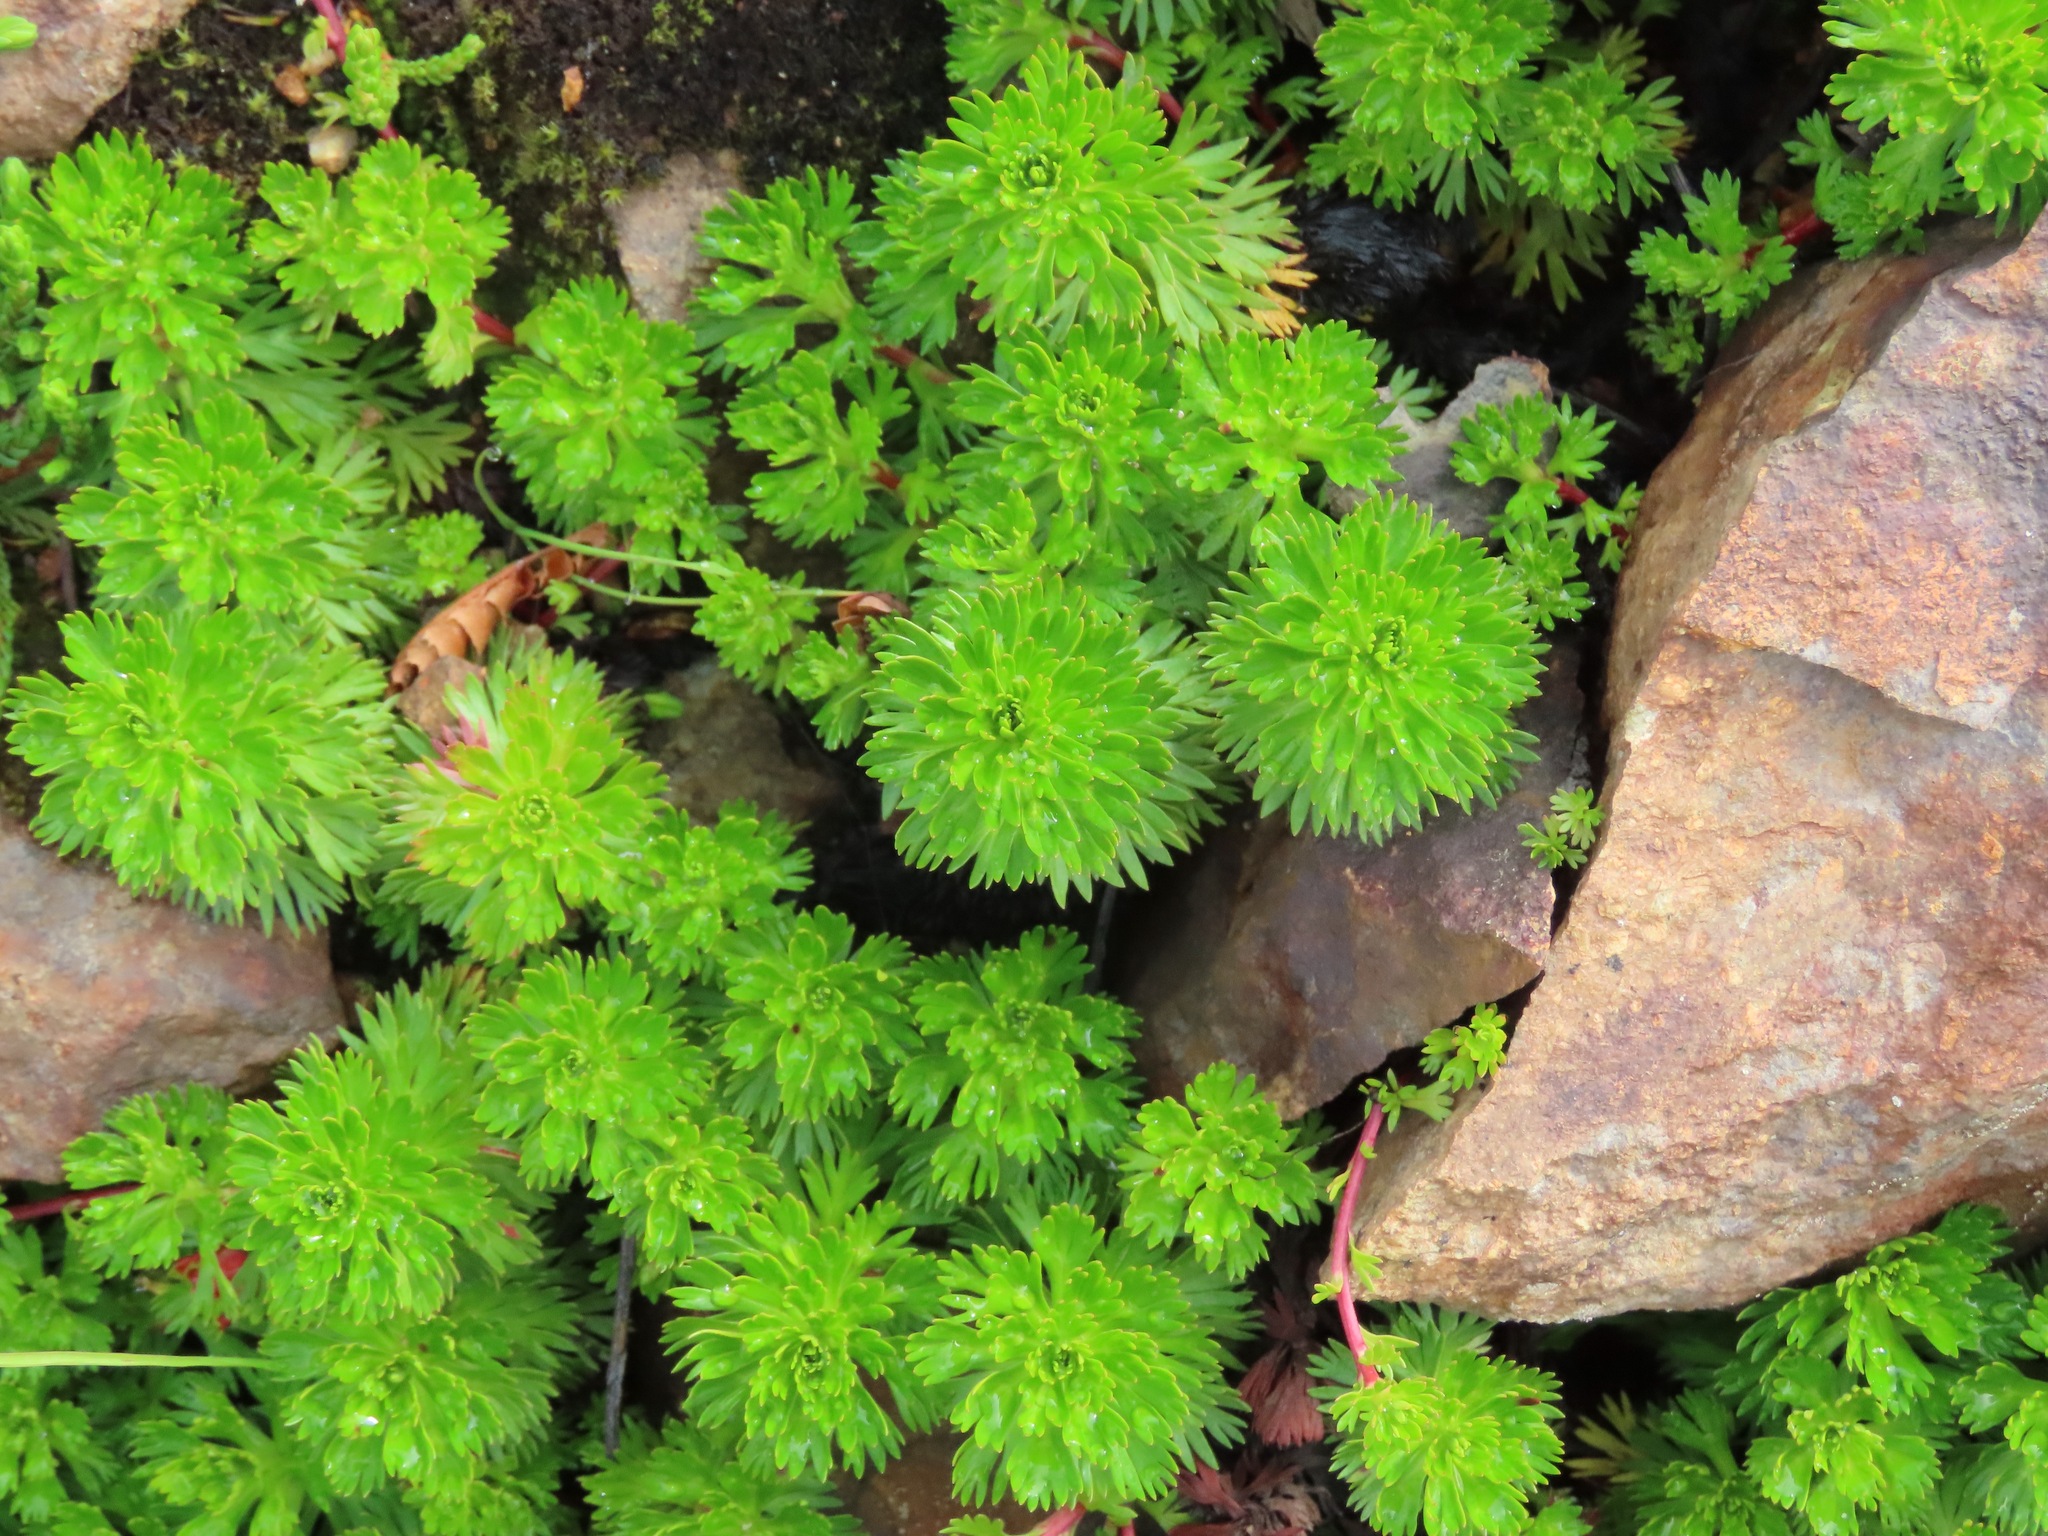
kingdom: Plantae
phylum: Tracheophyta
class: Magnoliopsida
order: Rosales
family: Rosaceae
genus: Luetkea
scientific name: Luetkea pectinata
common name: Partridgefoot
